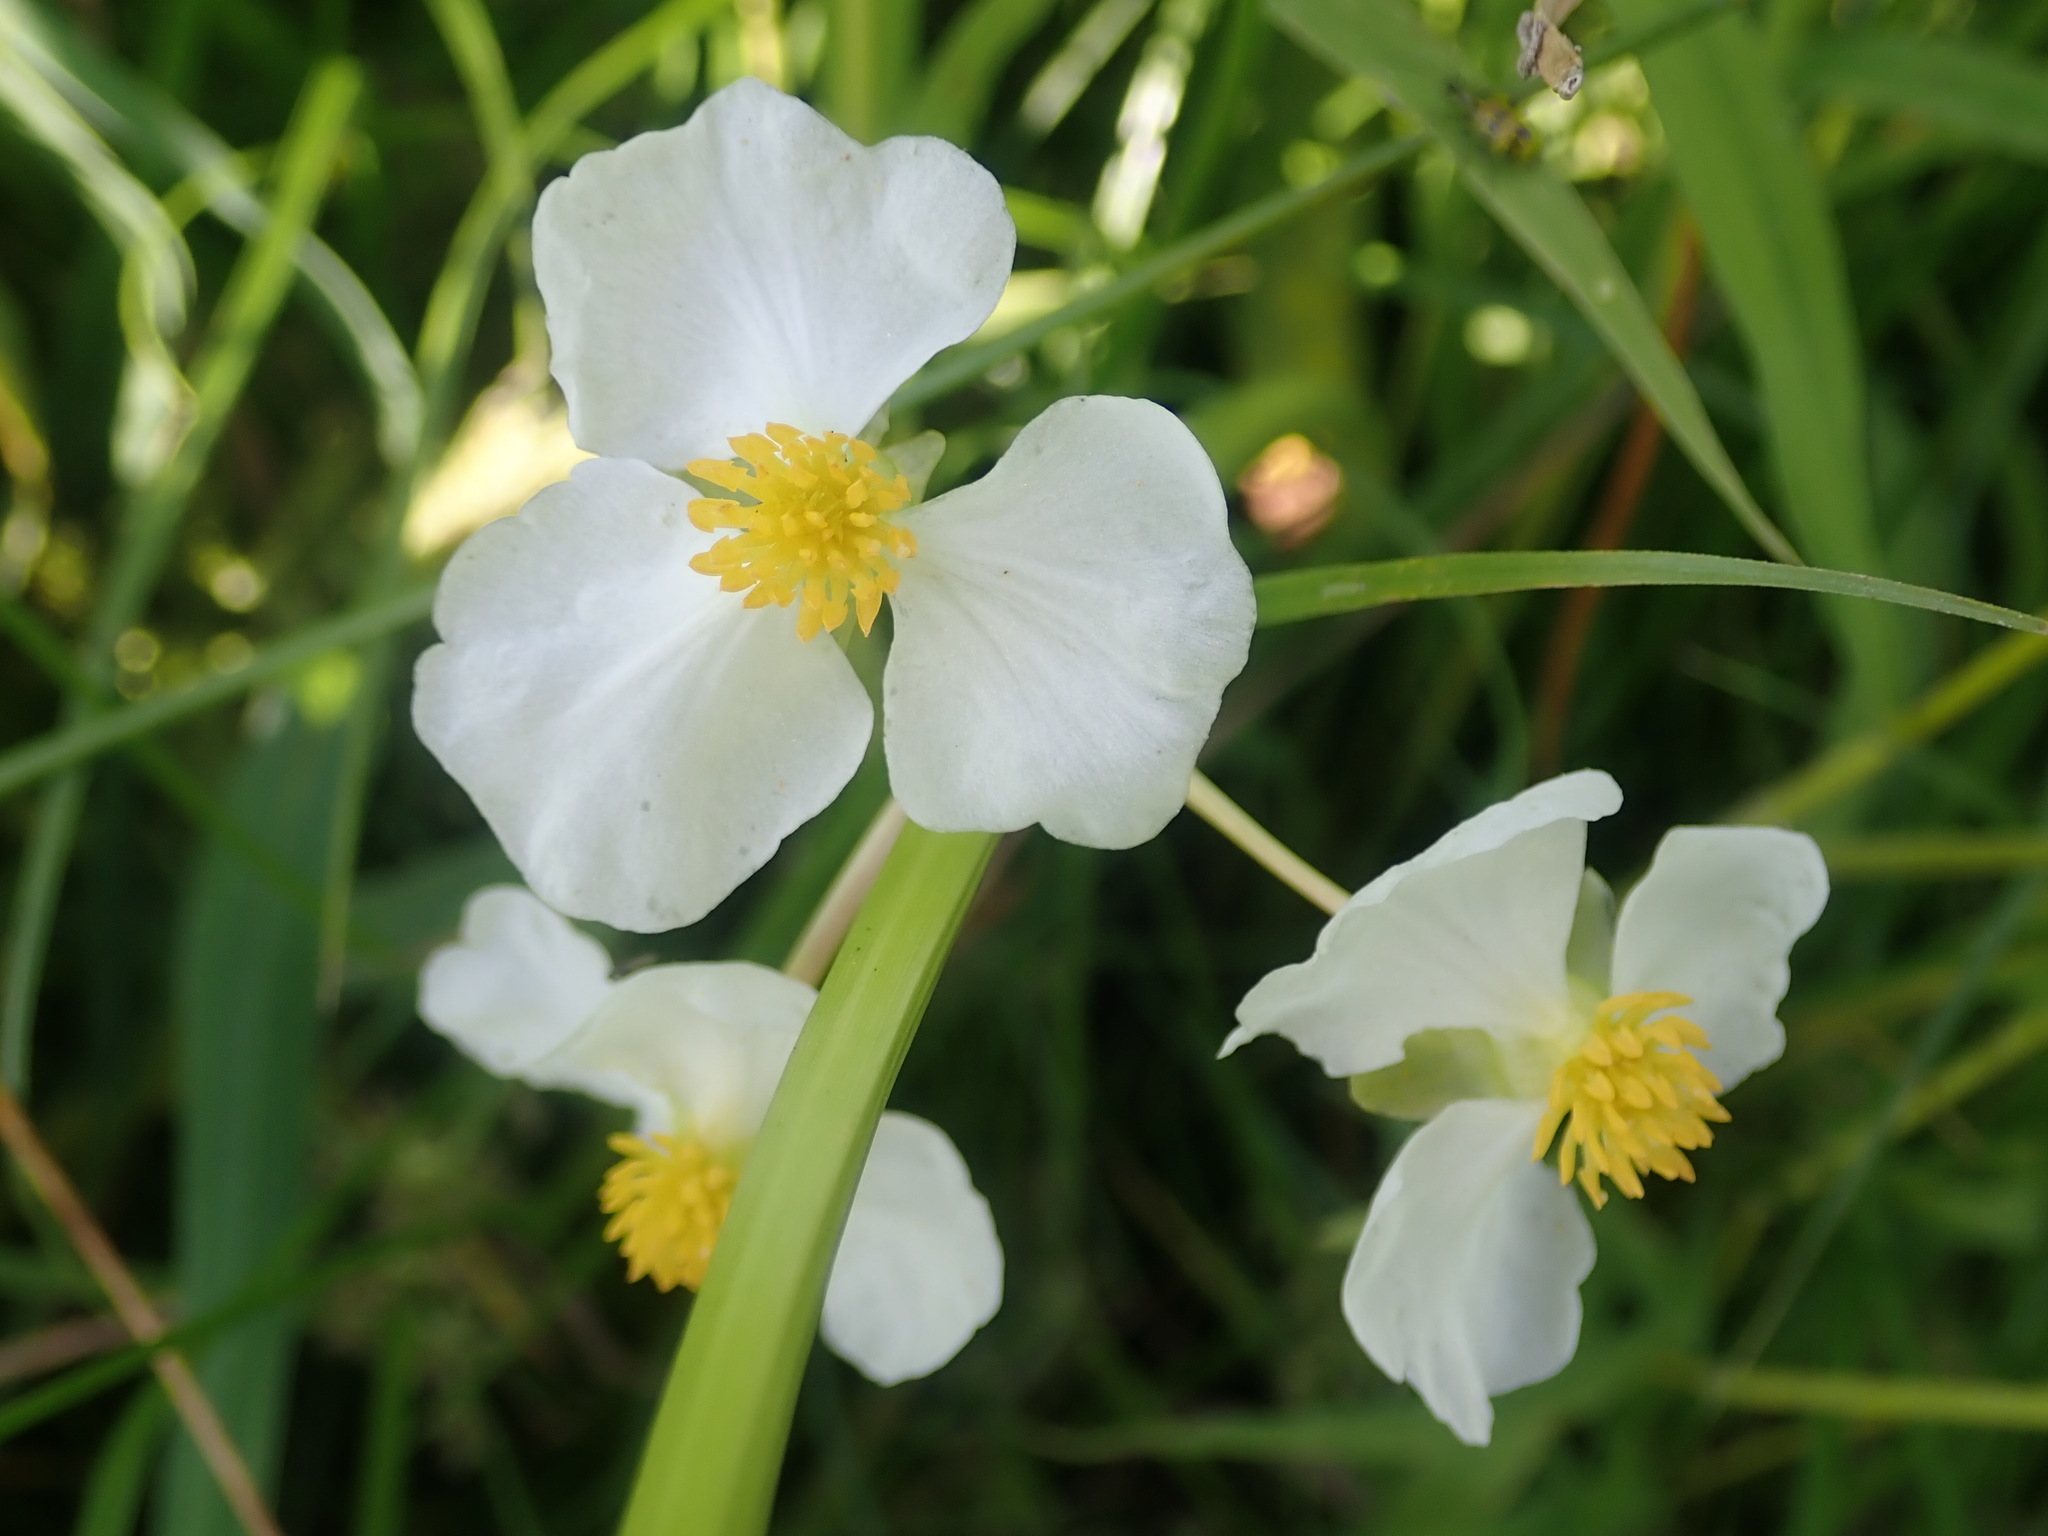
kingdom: Plantae
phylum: Tracheophyta
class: Liliopsida
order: Alismatales
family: Alismataceae
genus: Sagittaria
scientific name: Sagittaria latifolia
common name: Duck-potato
